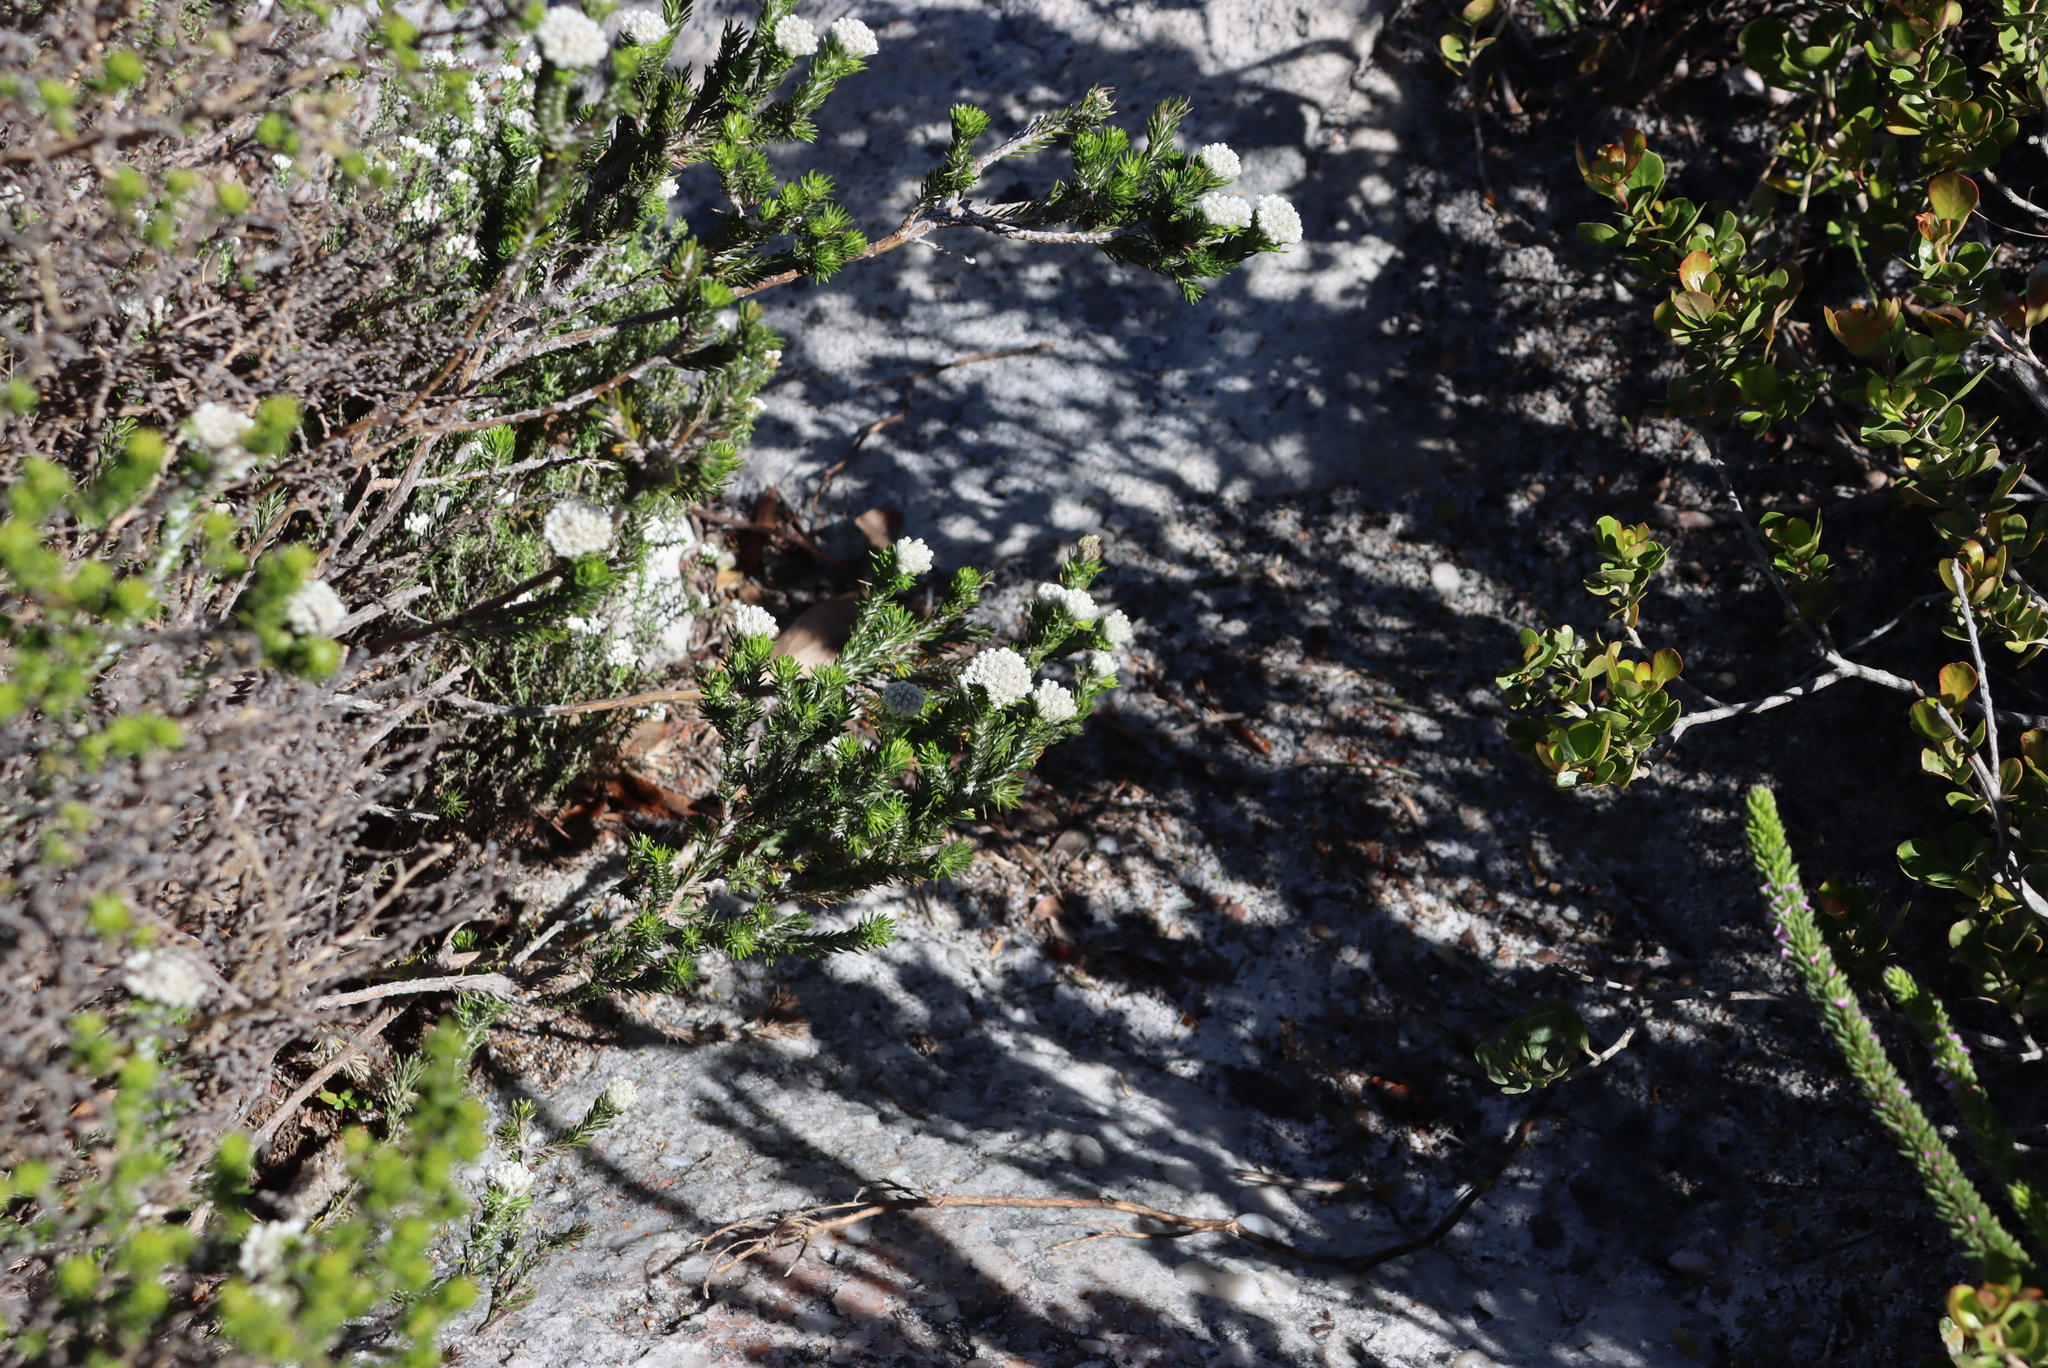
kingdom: Plantae
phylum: Tracheophyta
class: Magnoliopsida
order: Asterales
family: Asteraceae
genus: Metalasia
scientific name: Metalasia compacta
